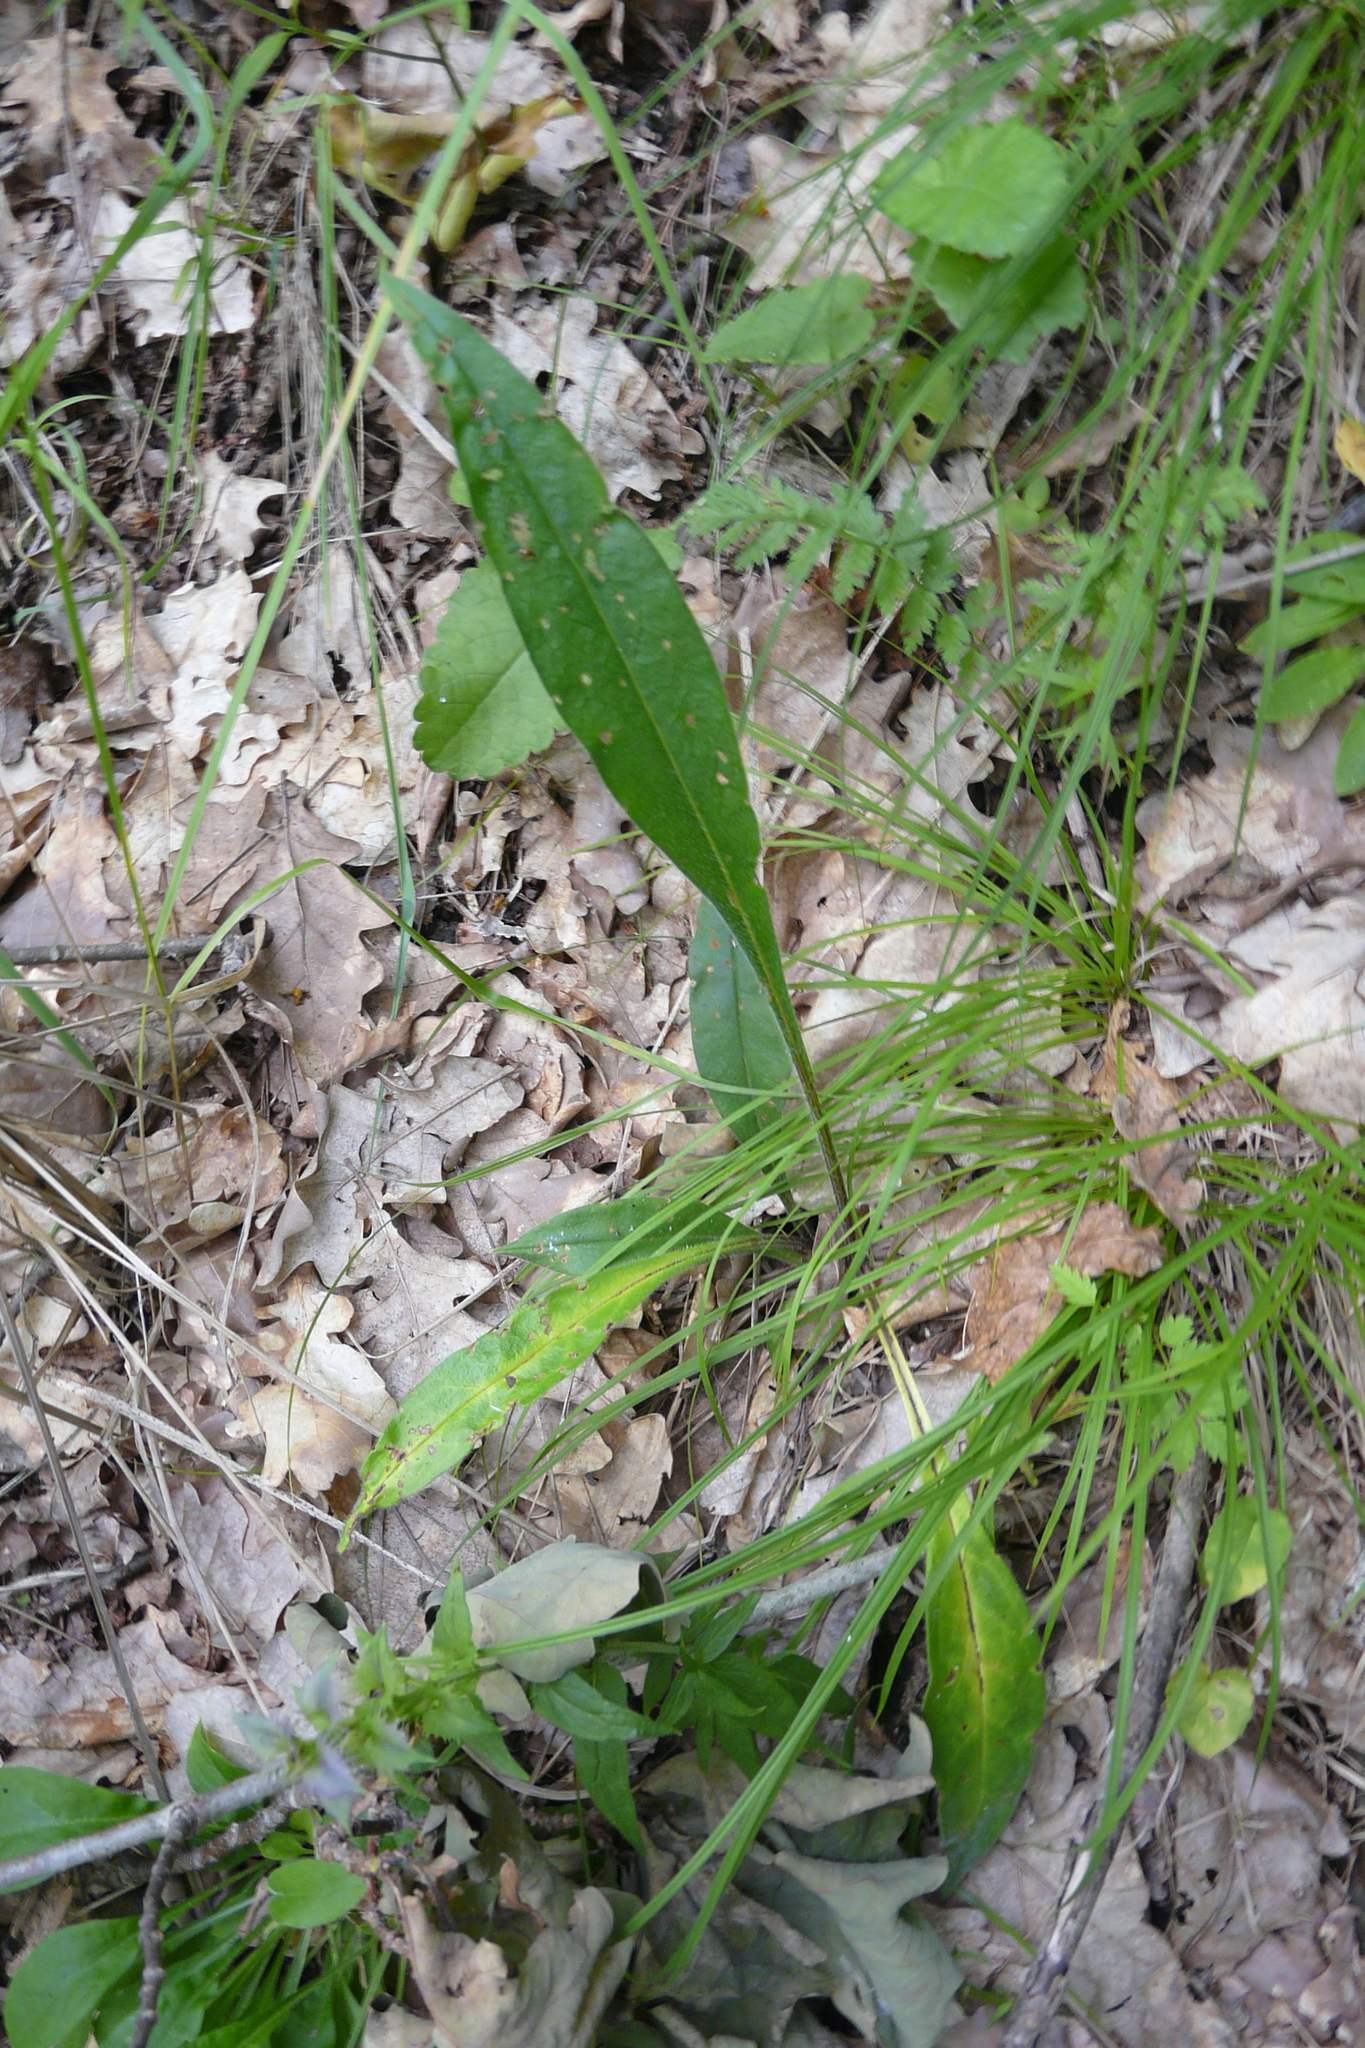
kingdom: Plantae
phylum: Tracheophyta
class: Magnoliopsida
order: Boraginales
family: Boraginaceae
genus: Pulmonaria
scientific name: Pulmonaria angustifolia
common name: Blue cowslip
